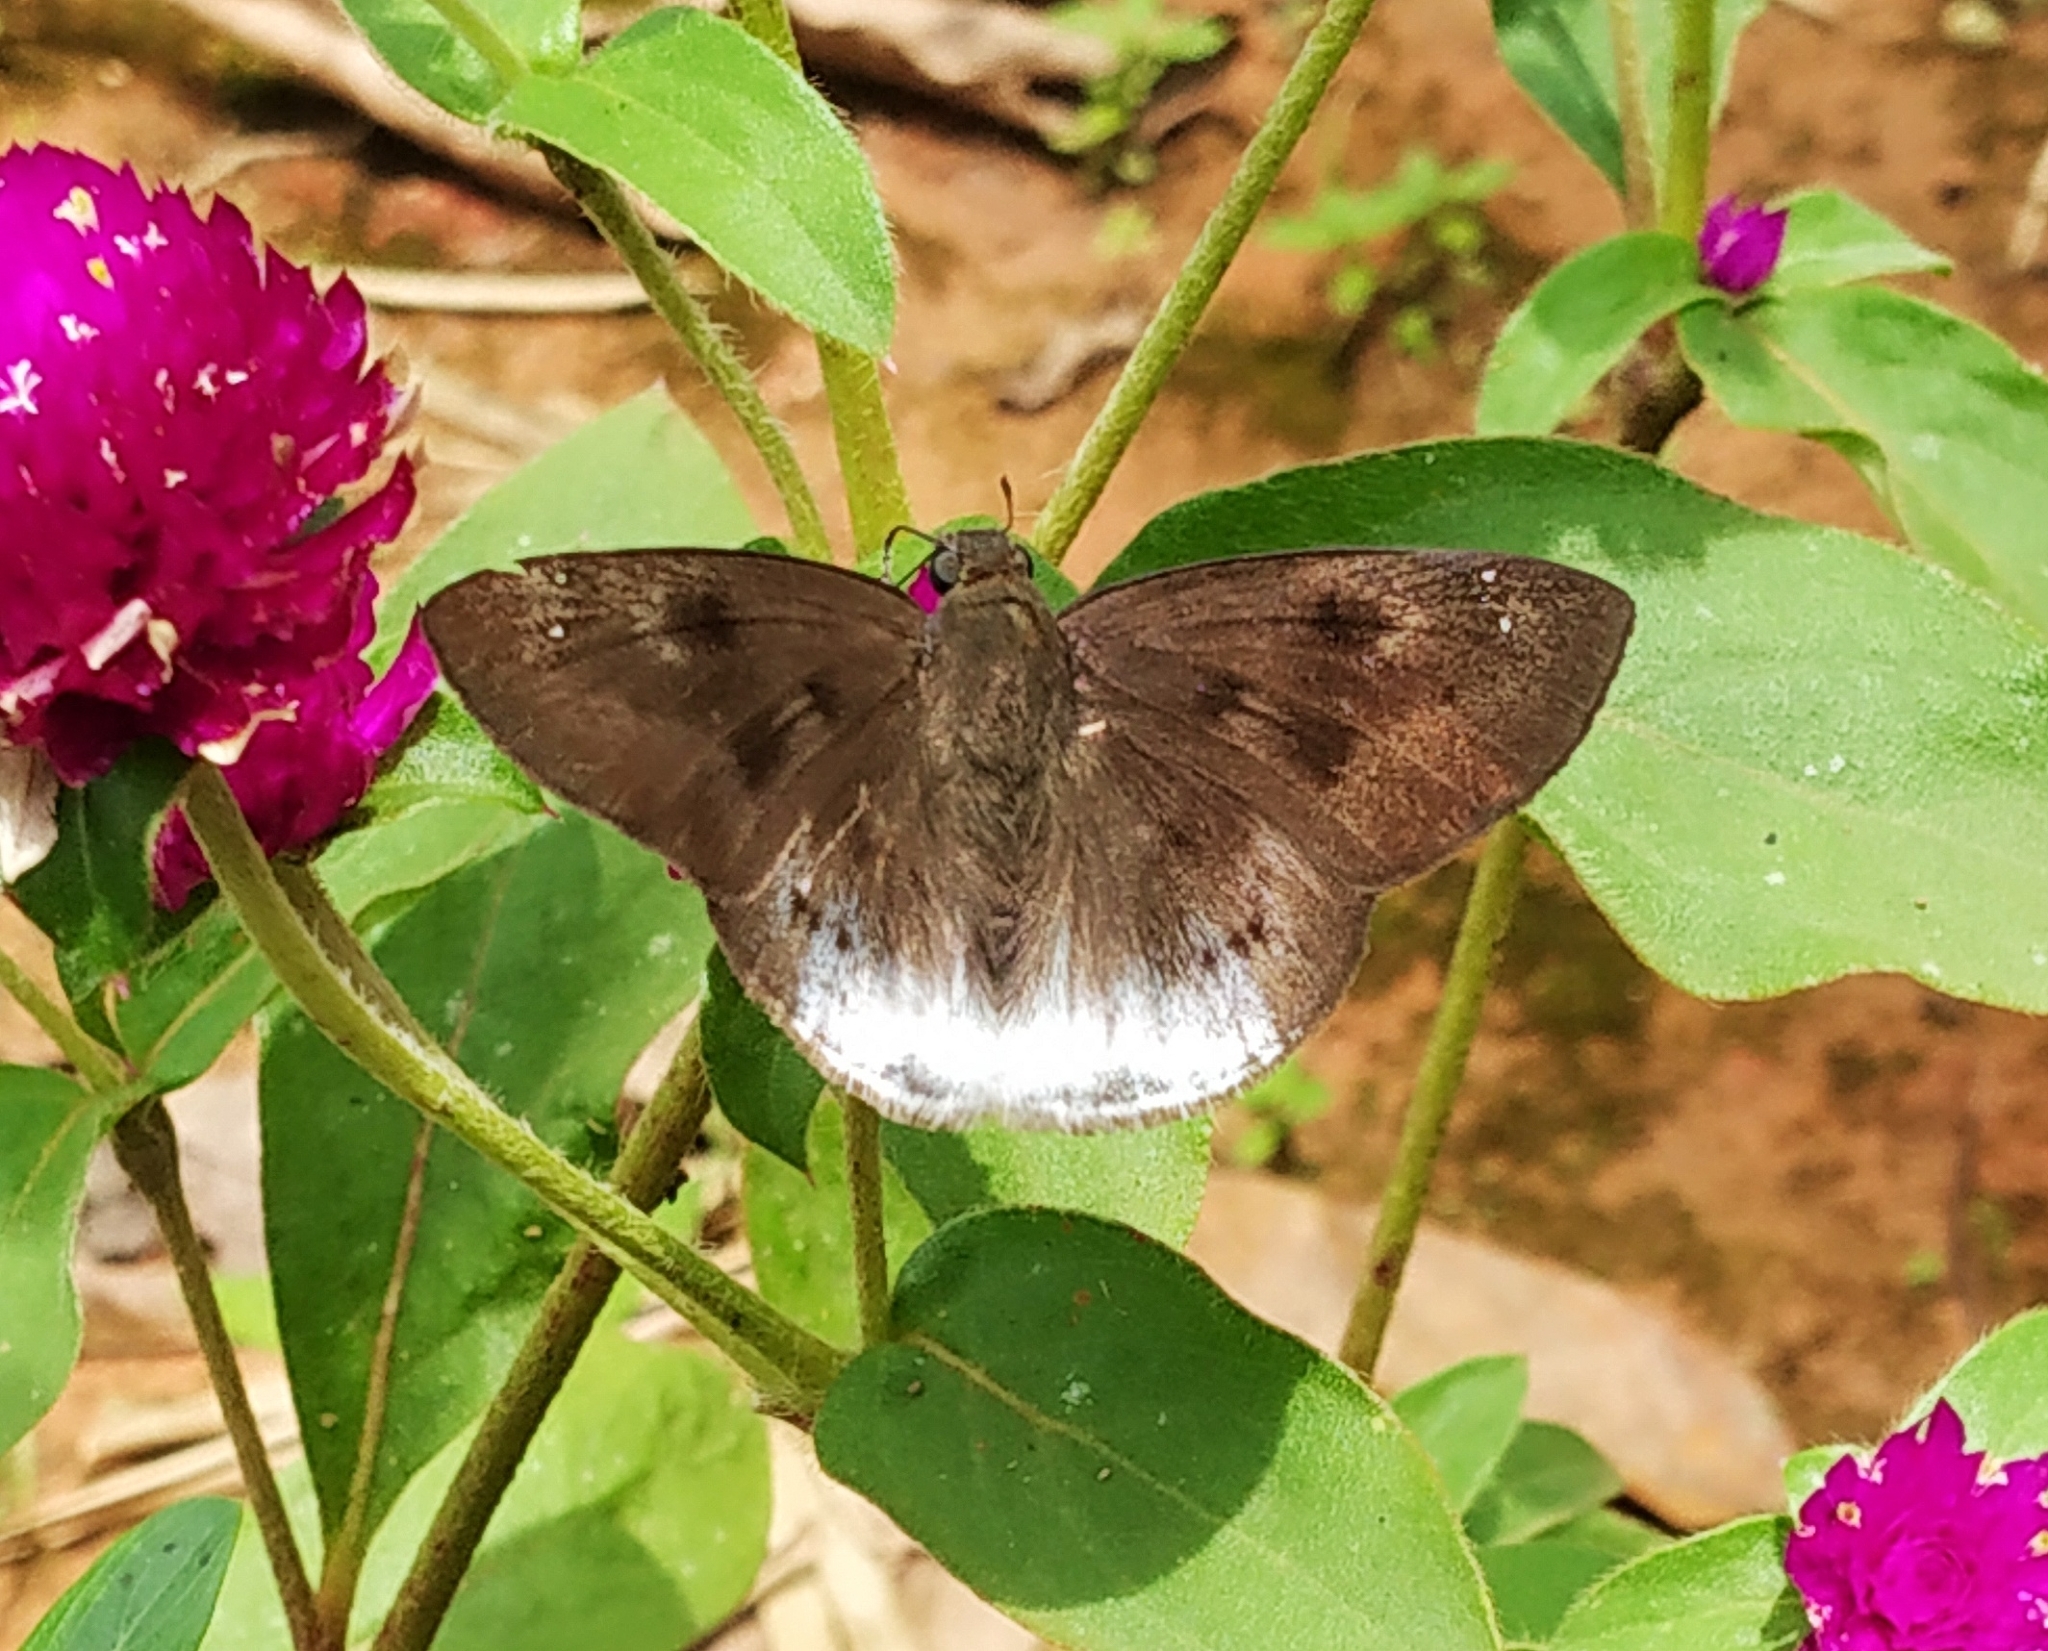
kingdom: Animalia
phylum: Arthropoda
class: Insecta
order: Lepidoptera
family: Hesperiidae
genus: Tagiades
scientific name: Tagiades gana
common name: Suffused snow flat
